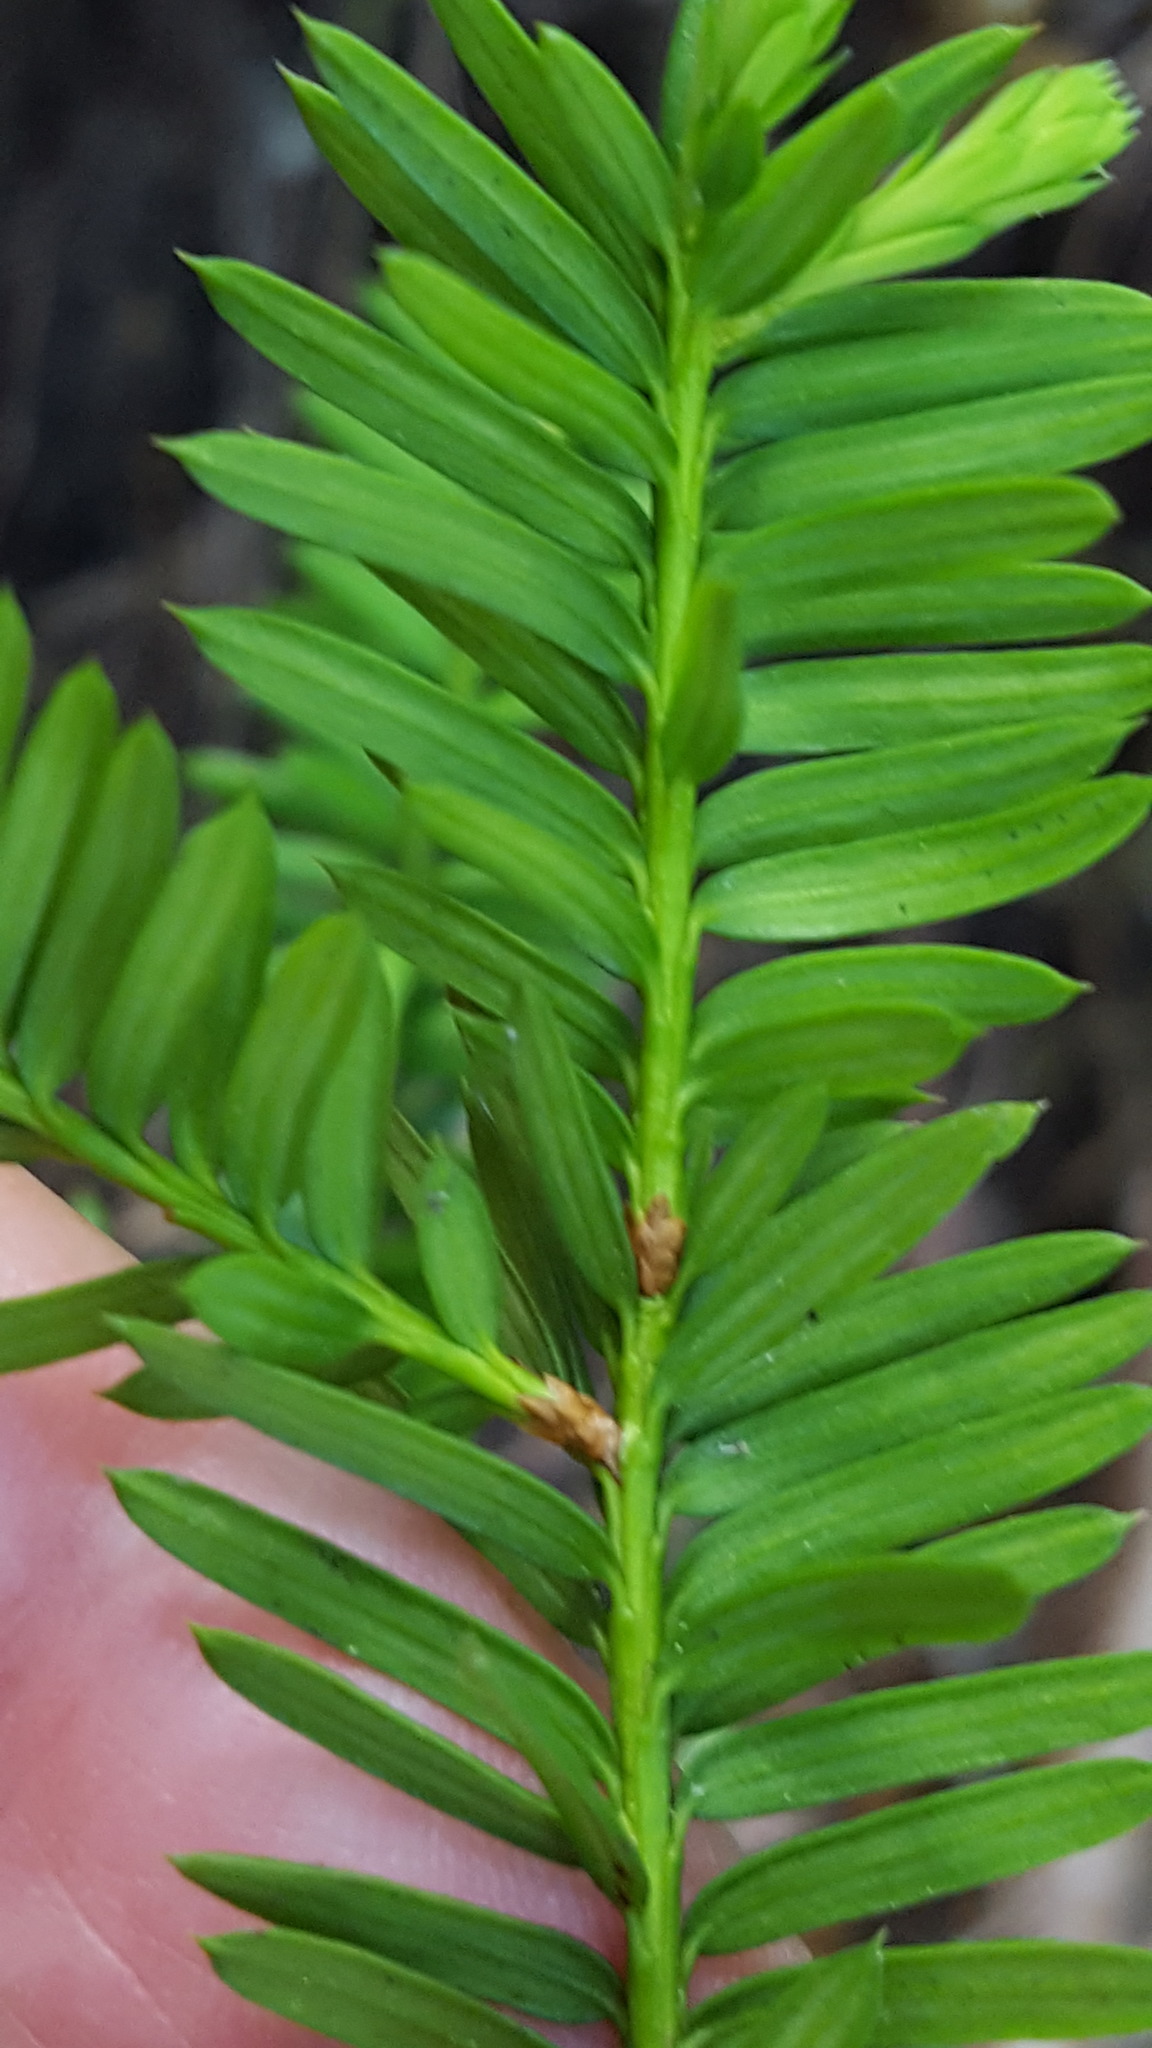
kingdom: Plantae
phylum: Tracheophyta
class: Pinopsida
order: Pinales
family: Taxaceae
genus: Taxus
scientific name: Taxus canadensis
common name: American yew
